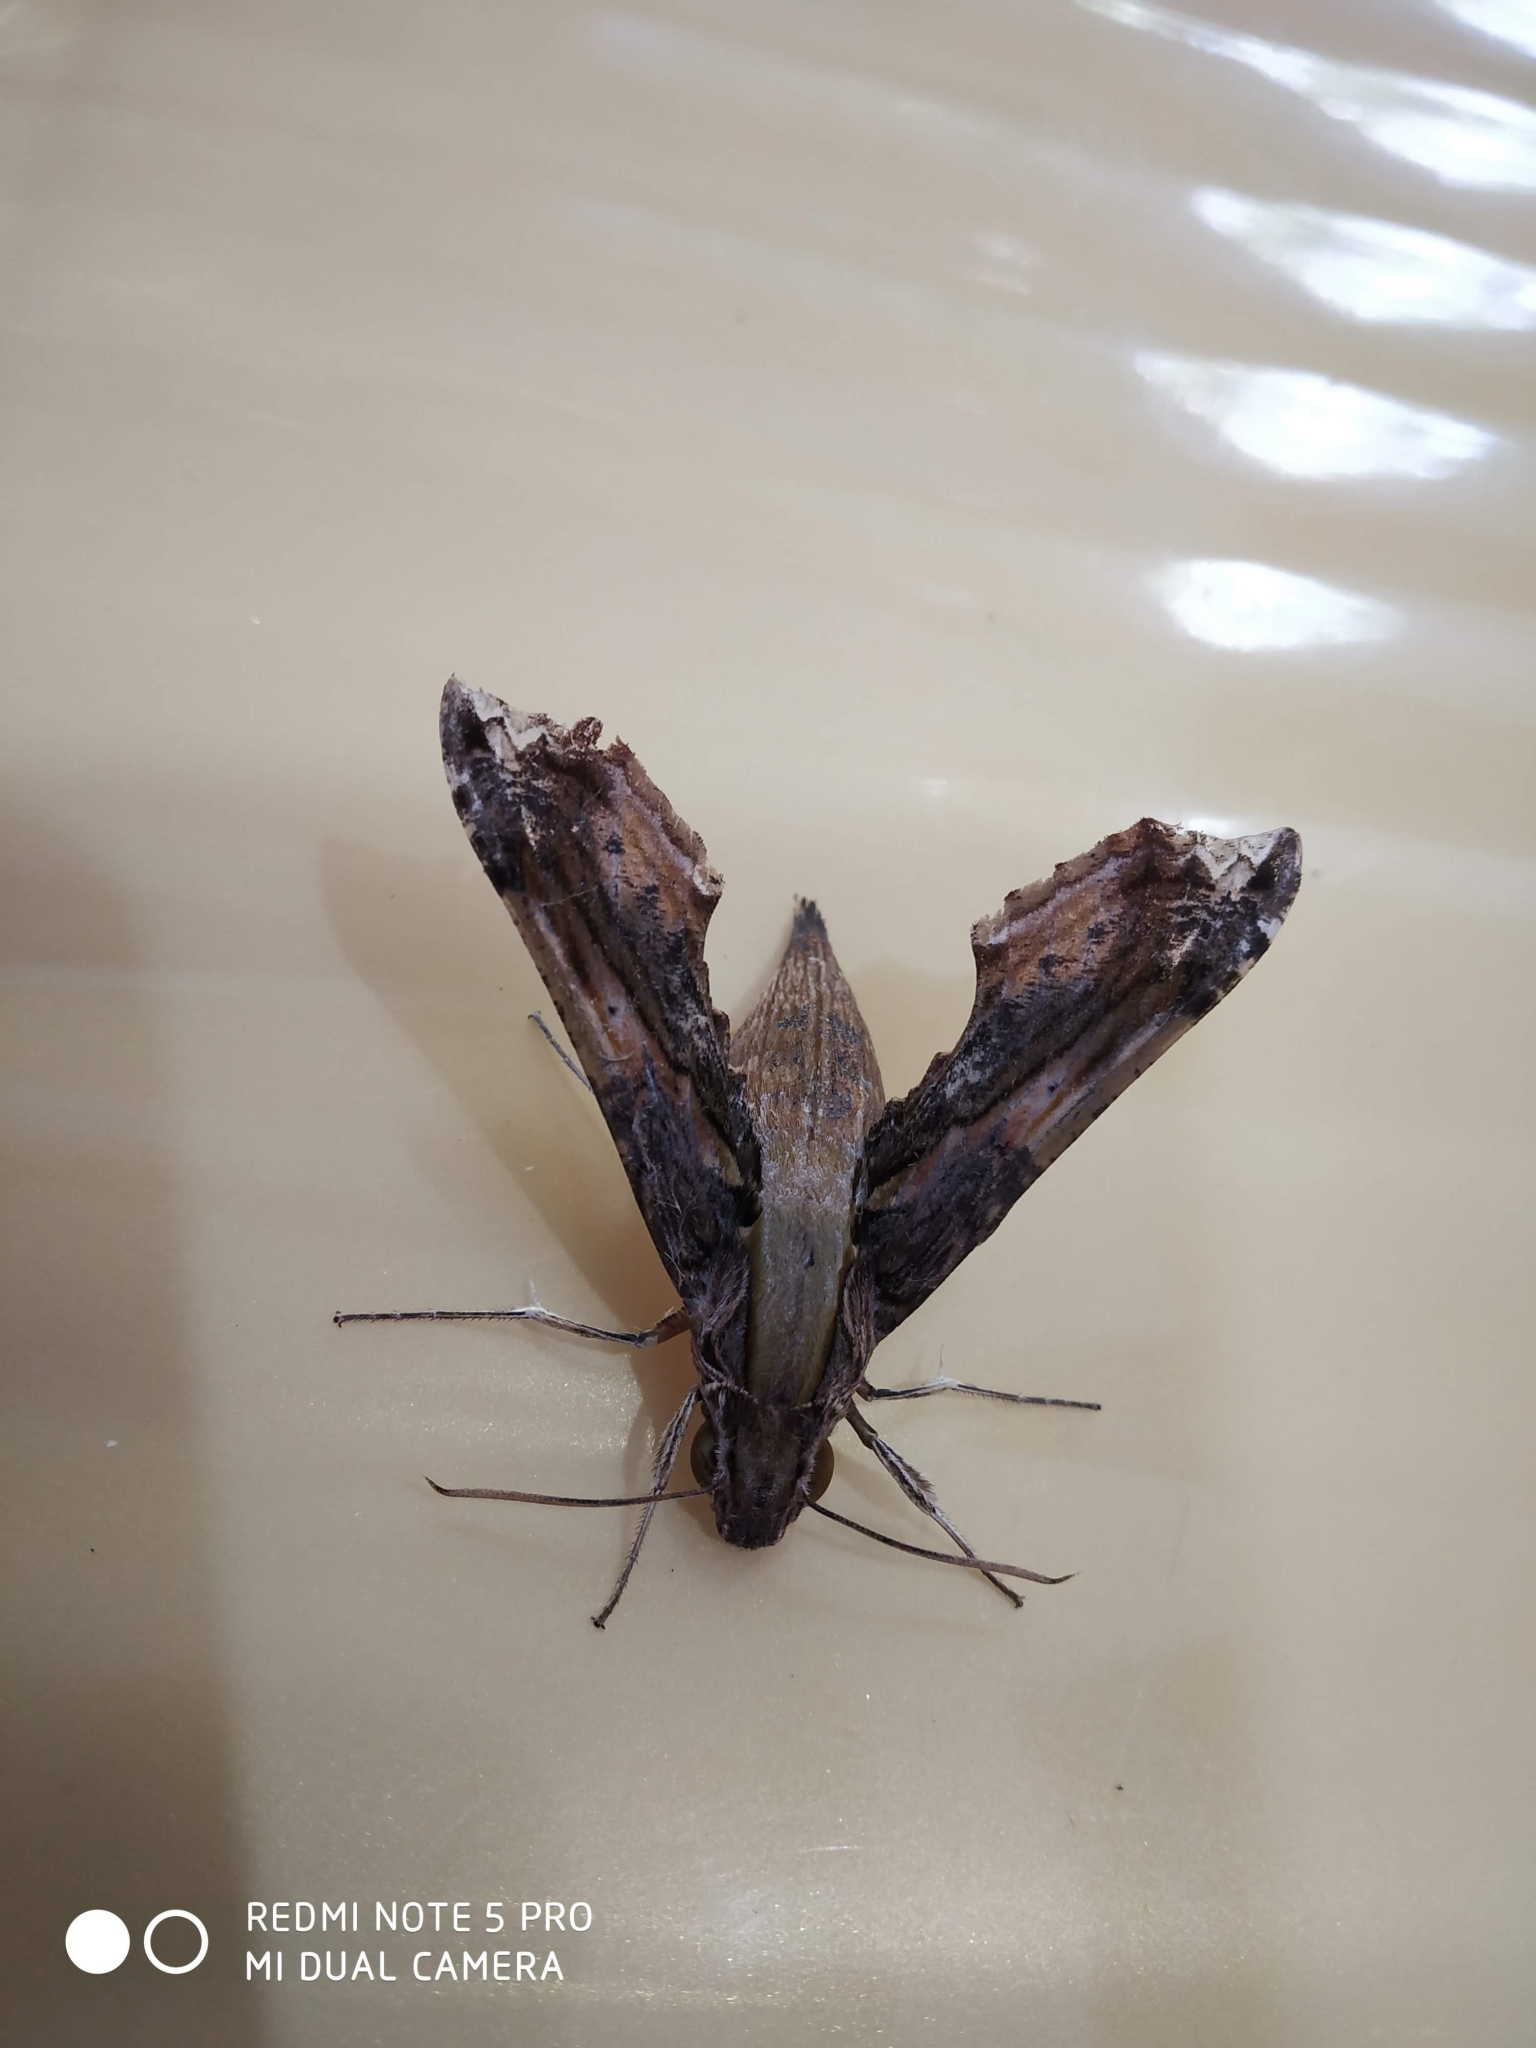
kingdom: Animalia
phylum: Arthropoda
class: Insecta
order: Lepidoptera
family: Sphingidae
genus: Eupanacra
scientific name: Eupanacra busiris
